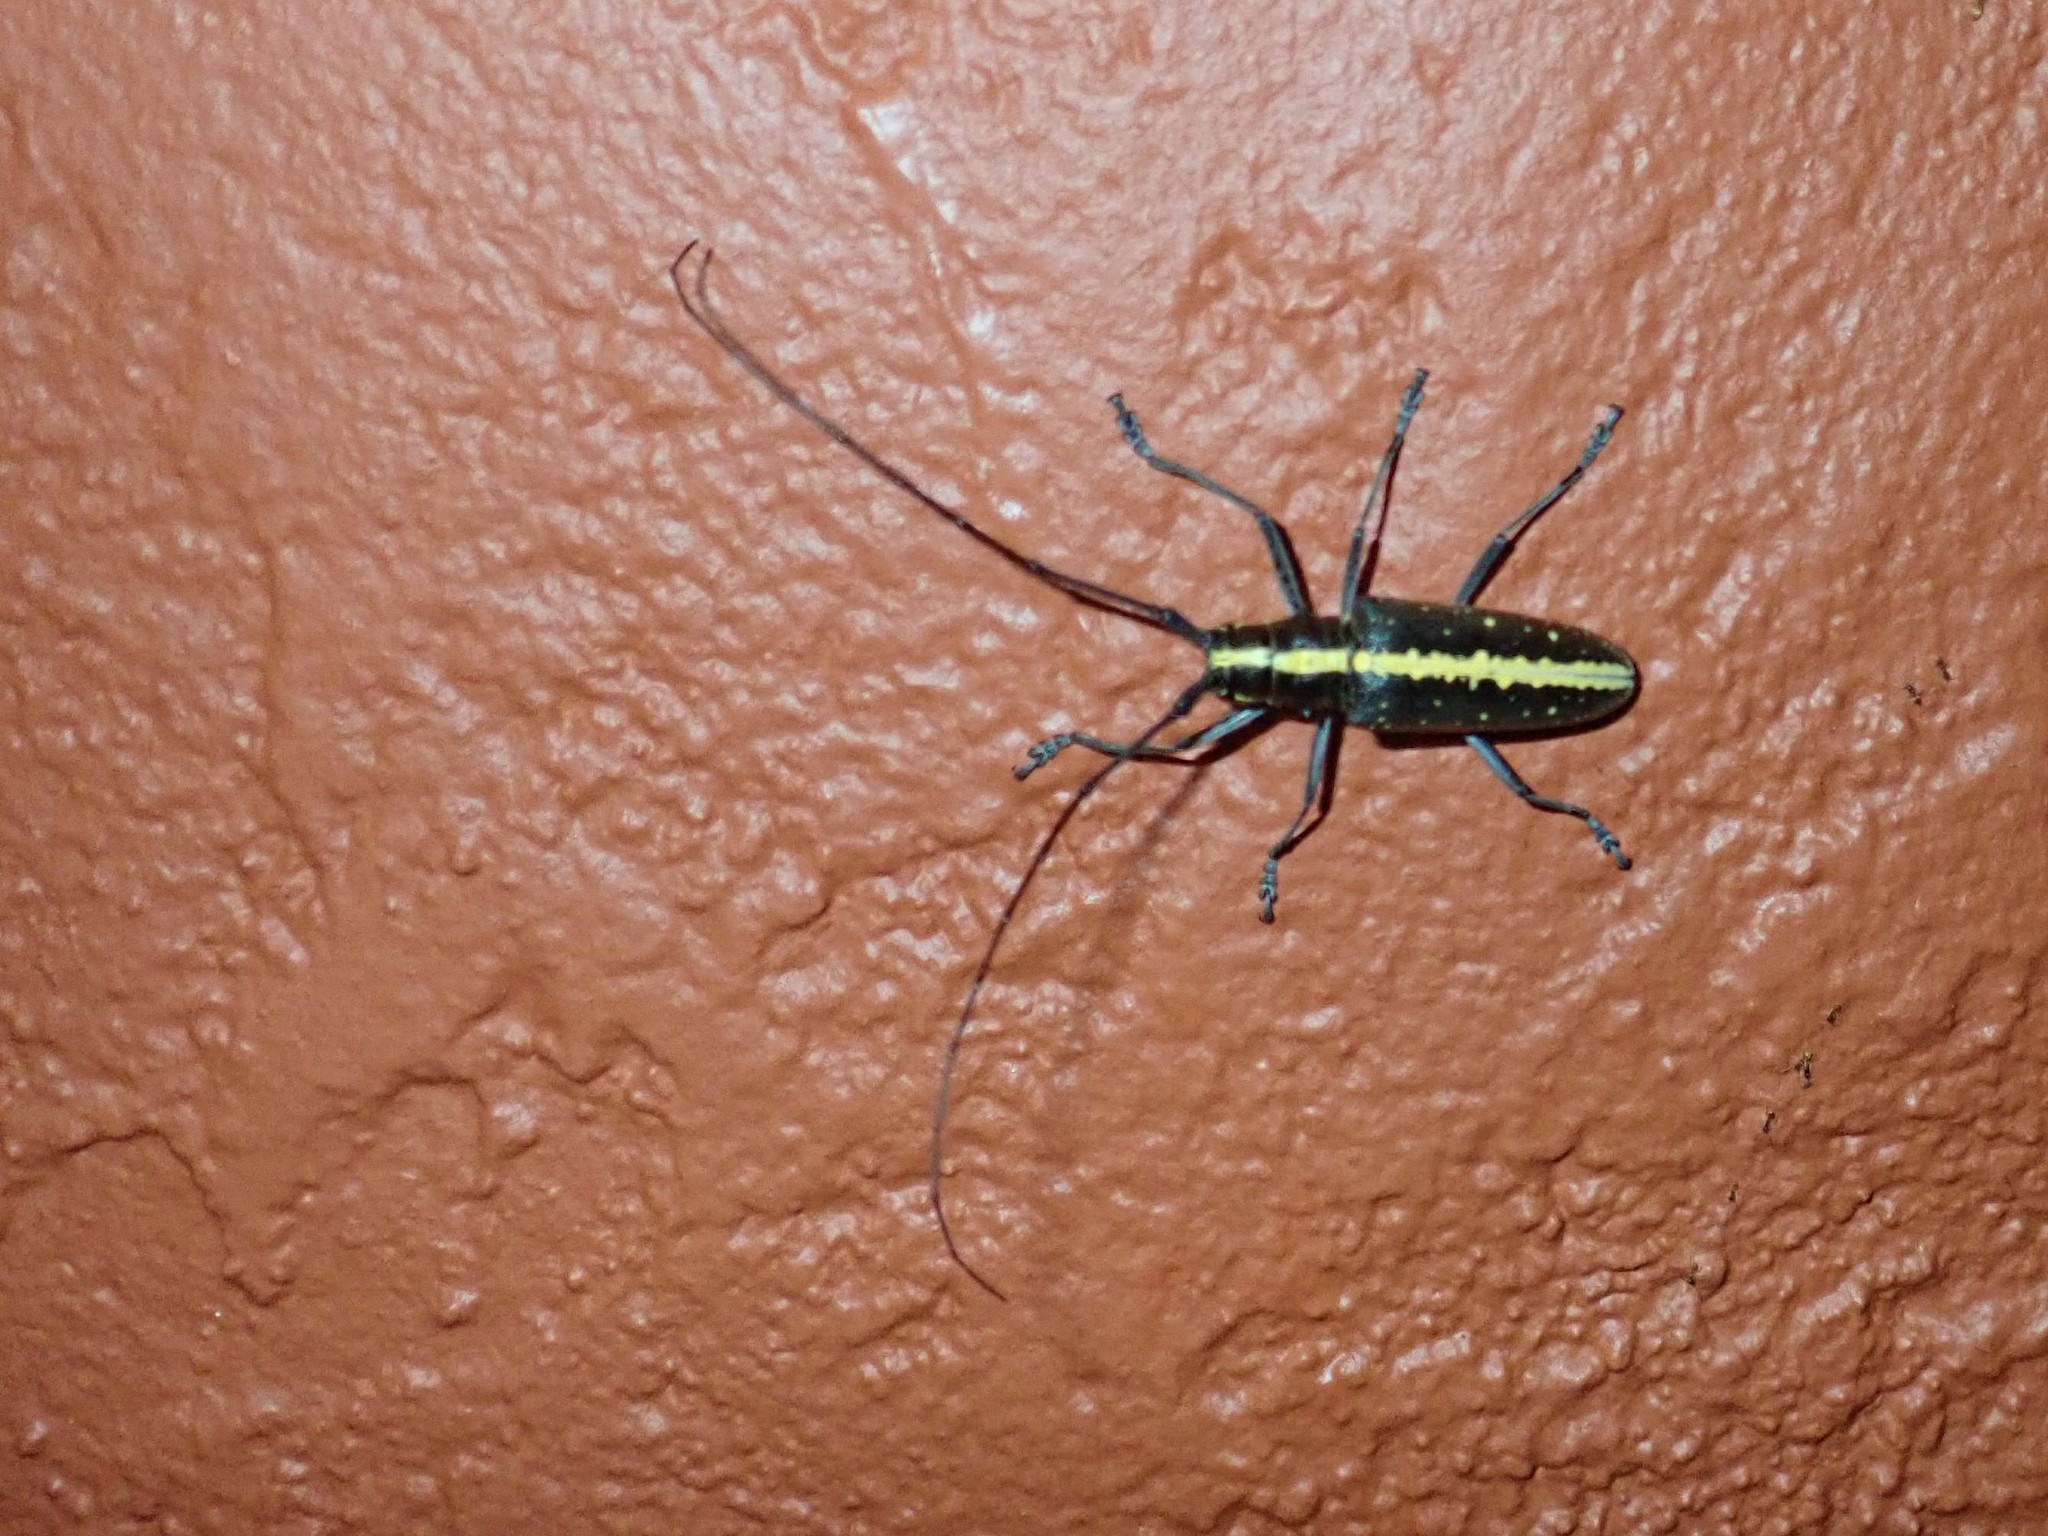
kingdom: Animalia
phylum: Arthropoda
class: Insecta
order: Coleoptera
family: Cerambycidae
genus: Taeniotes
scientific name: Taeniotes scalatus
